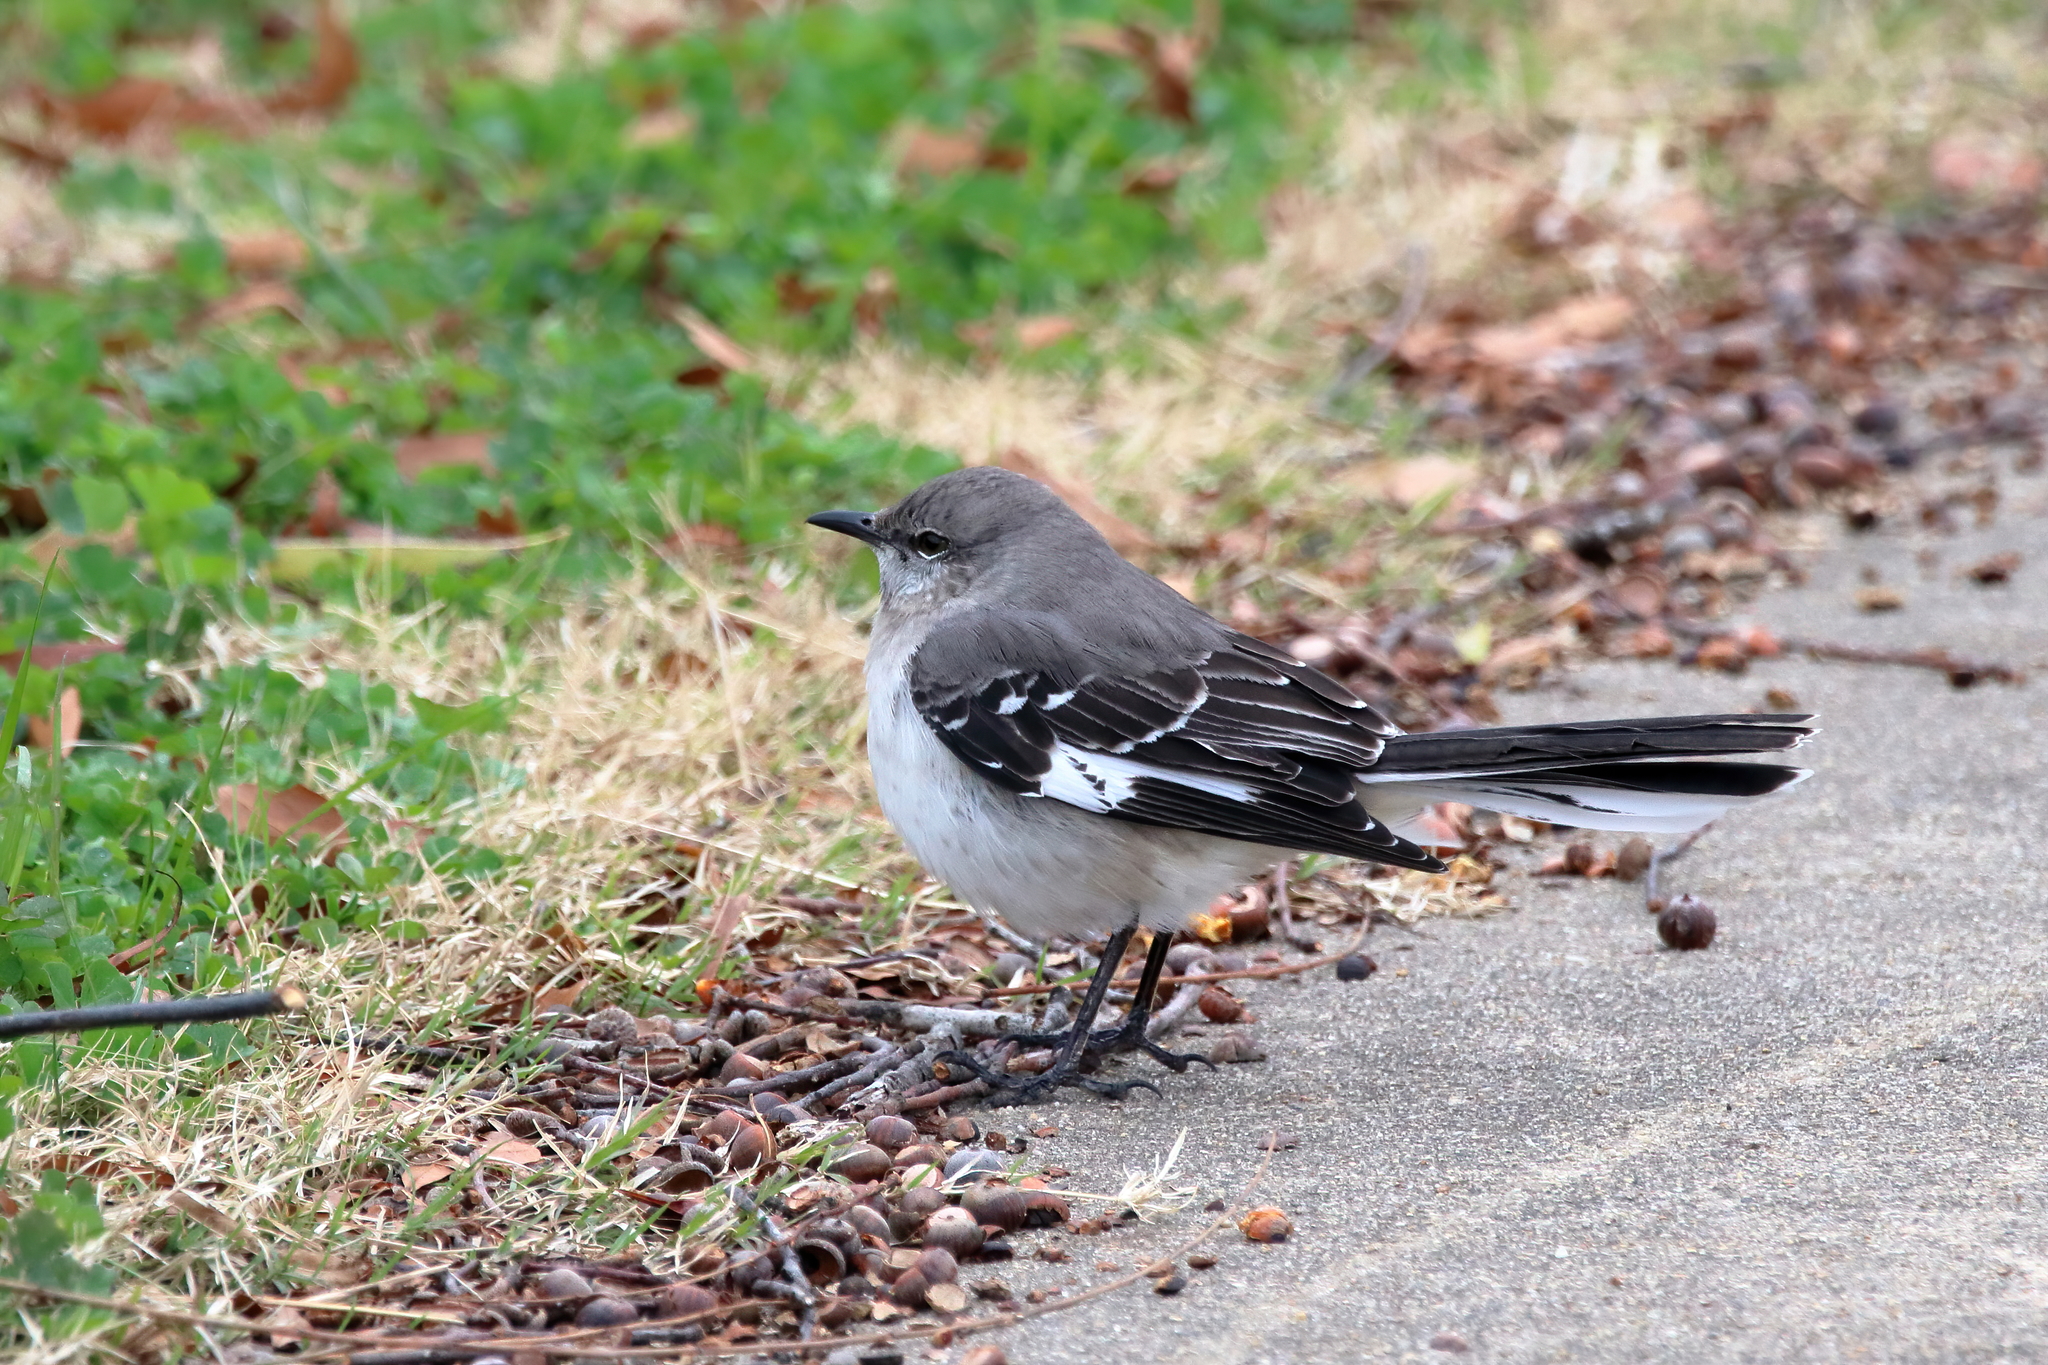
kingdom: Animalia
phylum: Chordata
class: Aves
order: Passeriformes
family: Mimidae
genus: Mimus
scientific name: Mimus polyglottos
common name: Northern mockingbird
